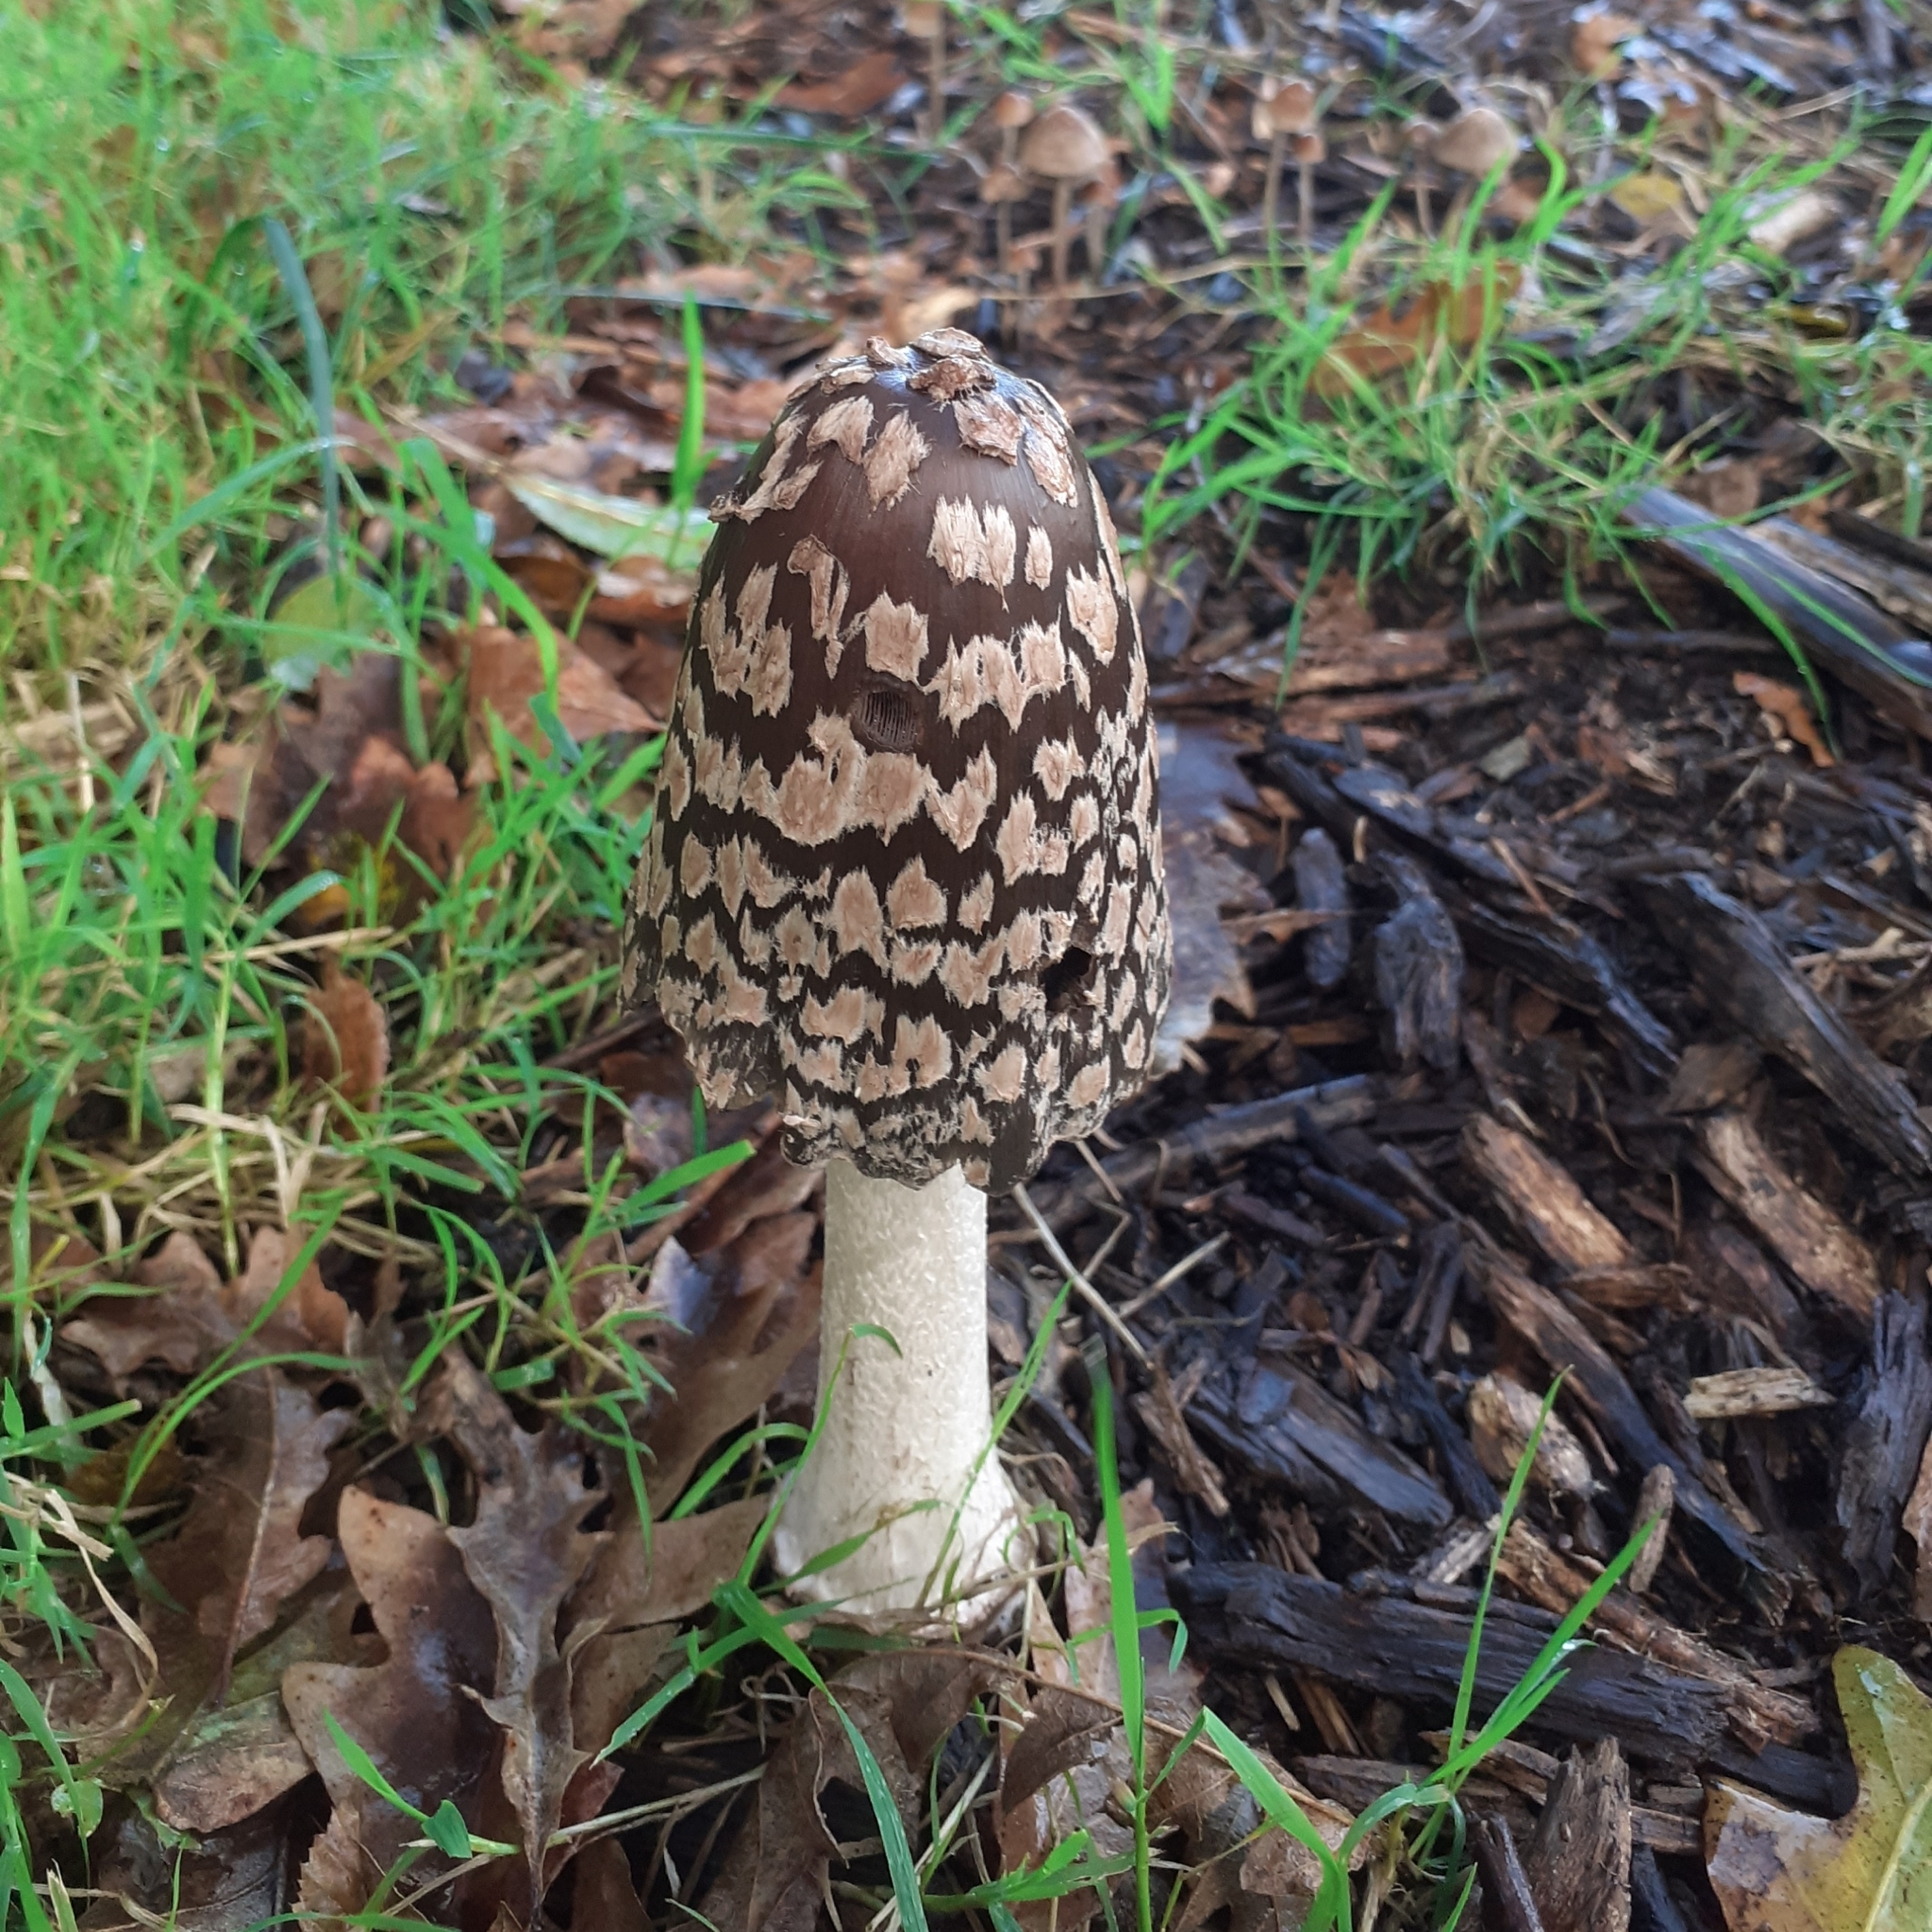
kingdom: Fungi
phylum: Basidiomycota
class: Agaricomycetes
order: Agaricales
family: Psathyrellaceae
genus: Coprinopsis
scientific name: Coprinopsis picacea
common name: Magpie inkcap
